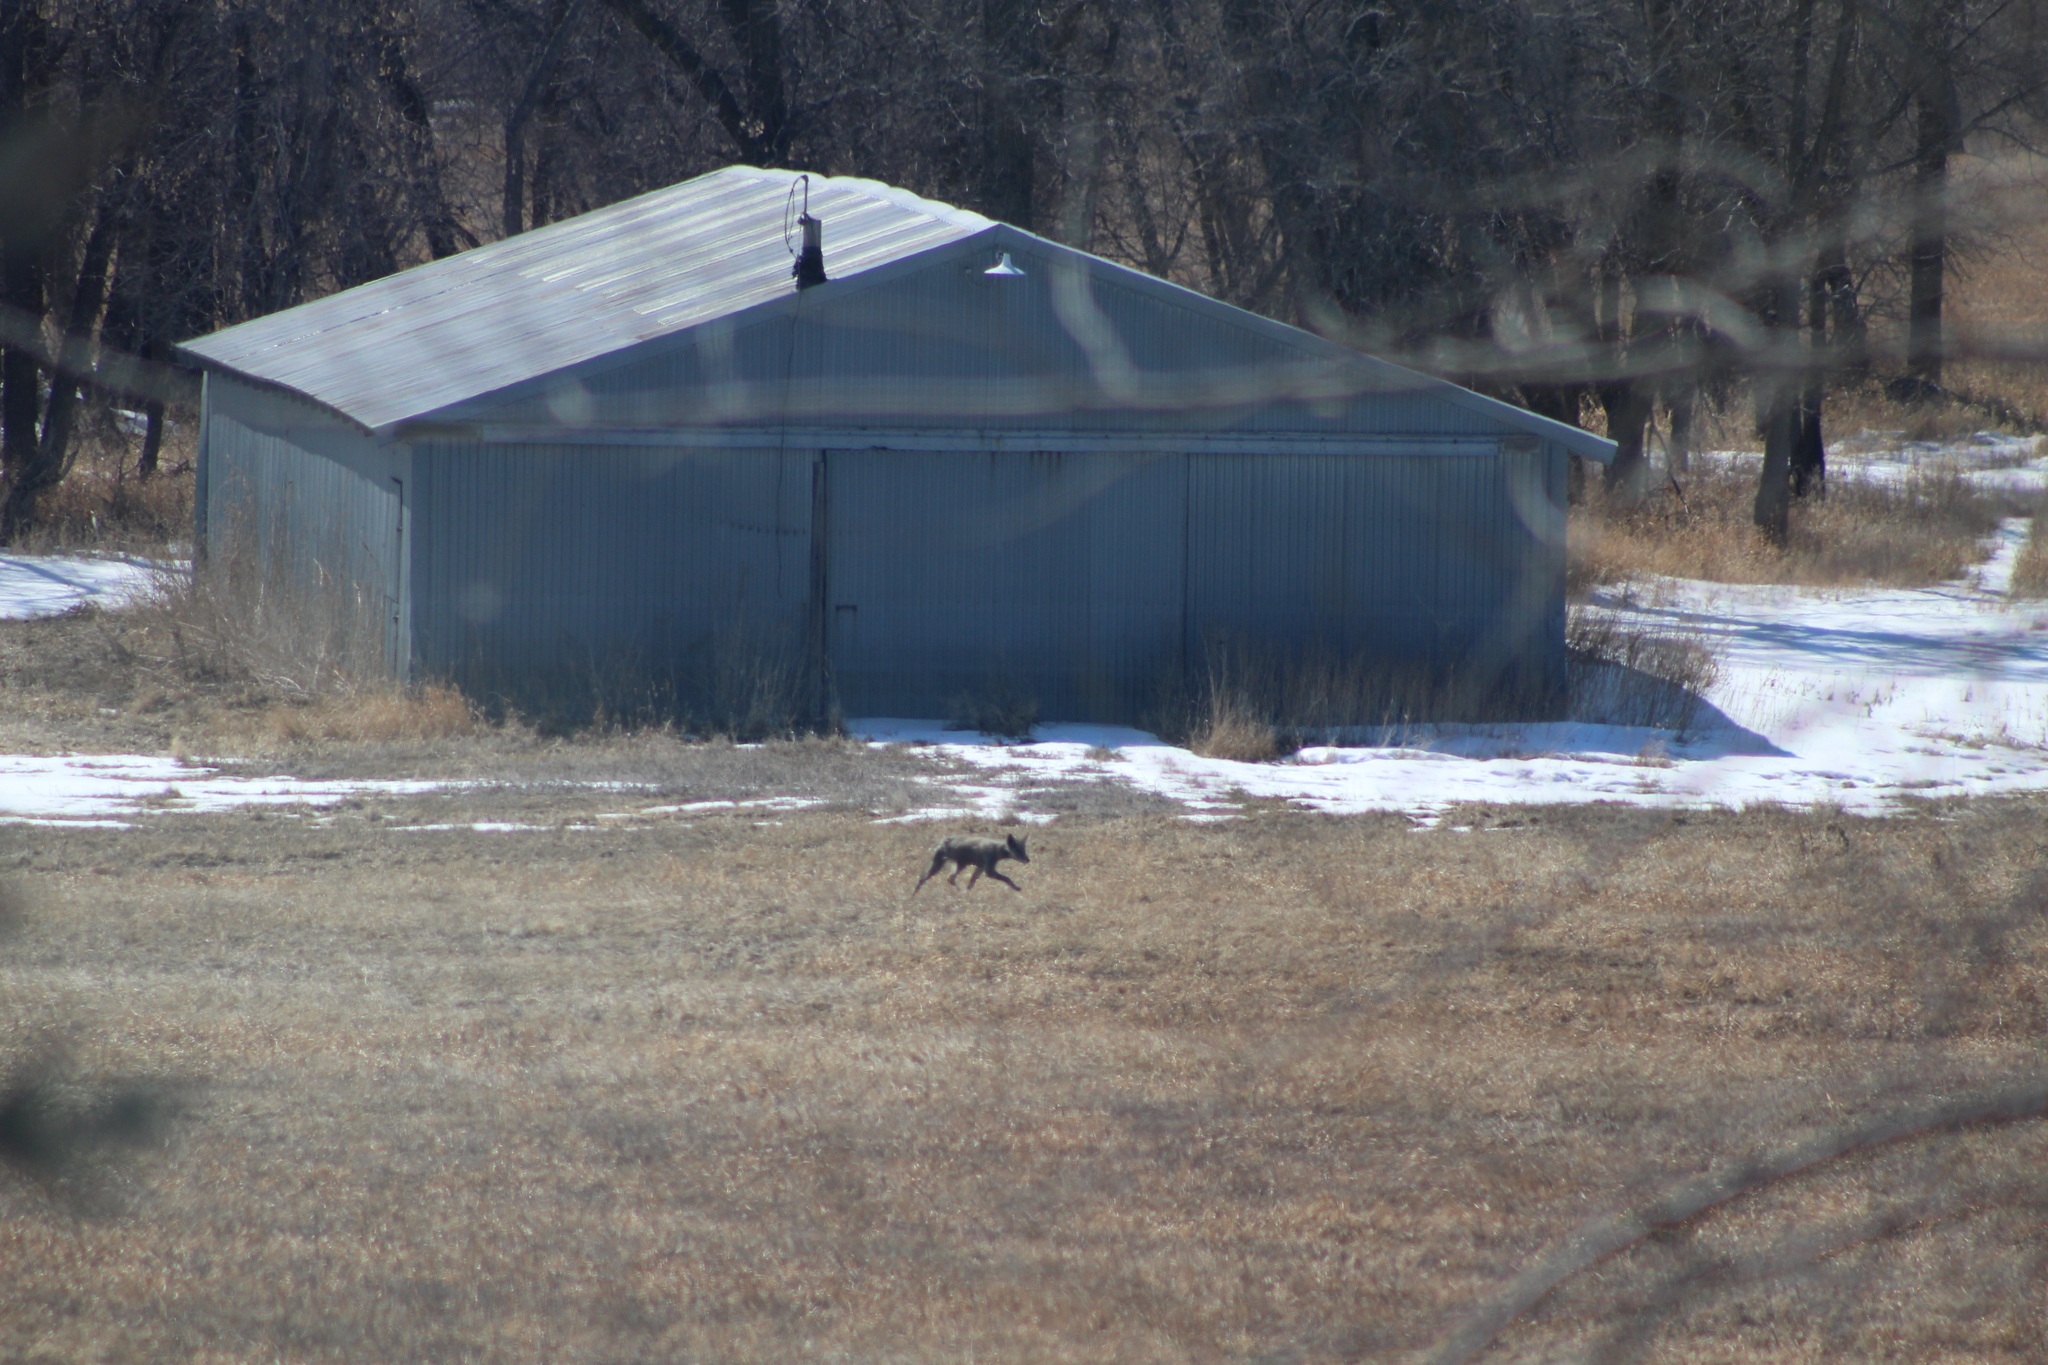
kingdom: Animalia
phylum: Chordata
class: Mammalia
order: Carnivora
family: Canidae
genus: Canis
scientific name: Canis latrans
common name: Coyote
